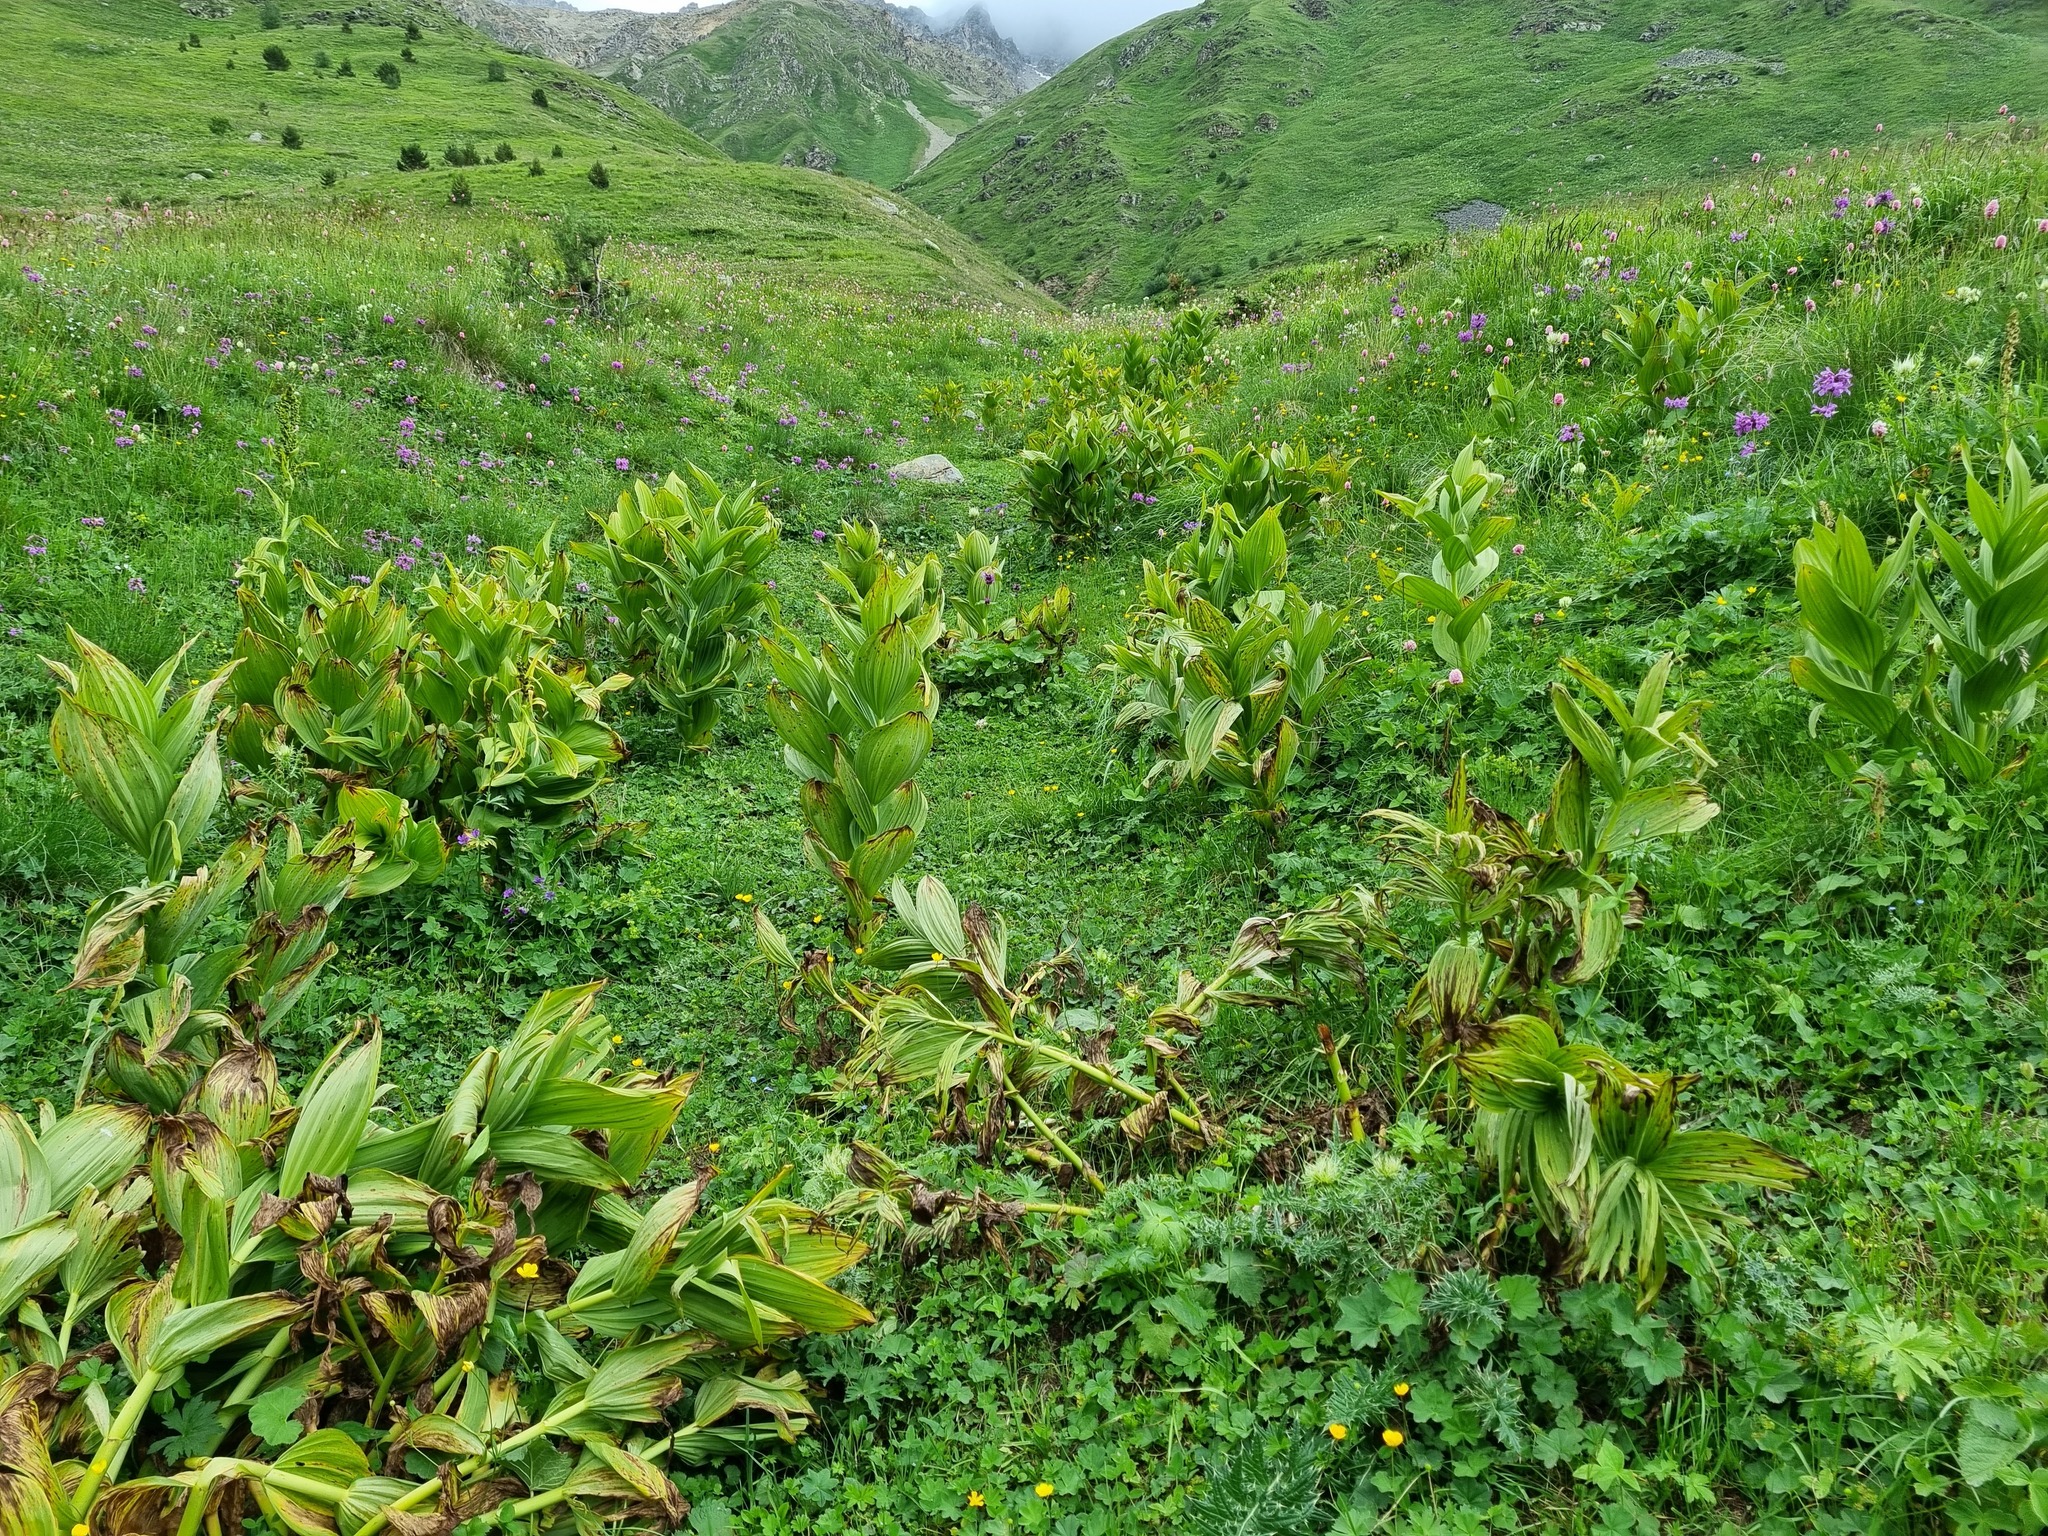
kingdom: Plantae
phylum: Tracheophyta
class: Liliopsida
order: Liliales
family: Melanthiaceae
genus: Veratrum
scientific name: Veratrum lobelianum
